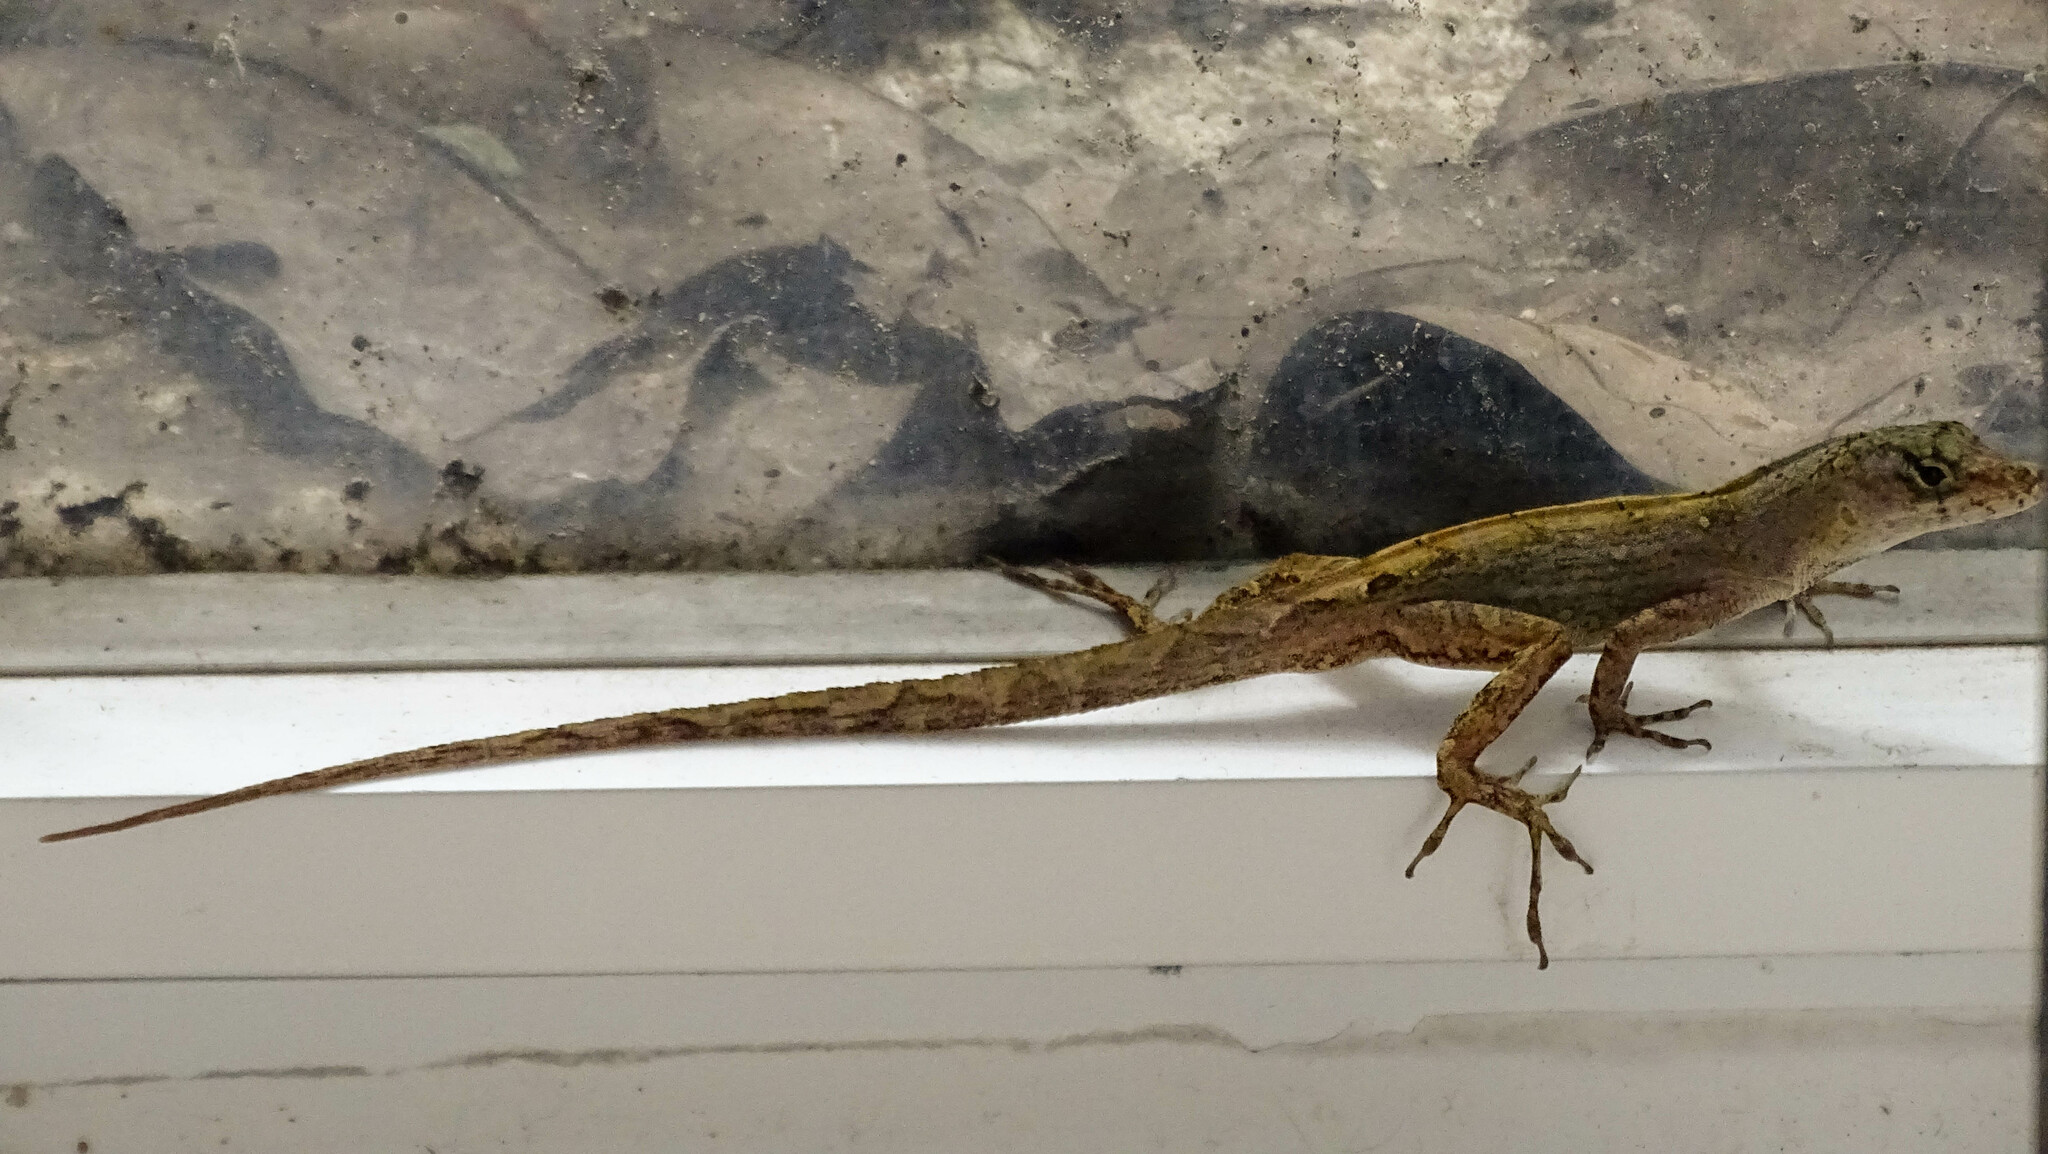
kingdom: Animalia
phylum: Chordata
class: Squamata
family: Dactyloidae
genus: Anolis
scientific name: Anolis sagrei
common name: Brown anole
